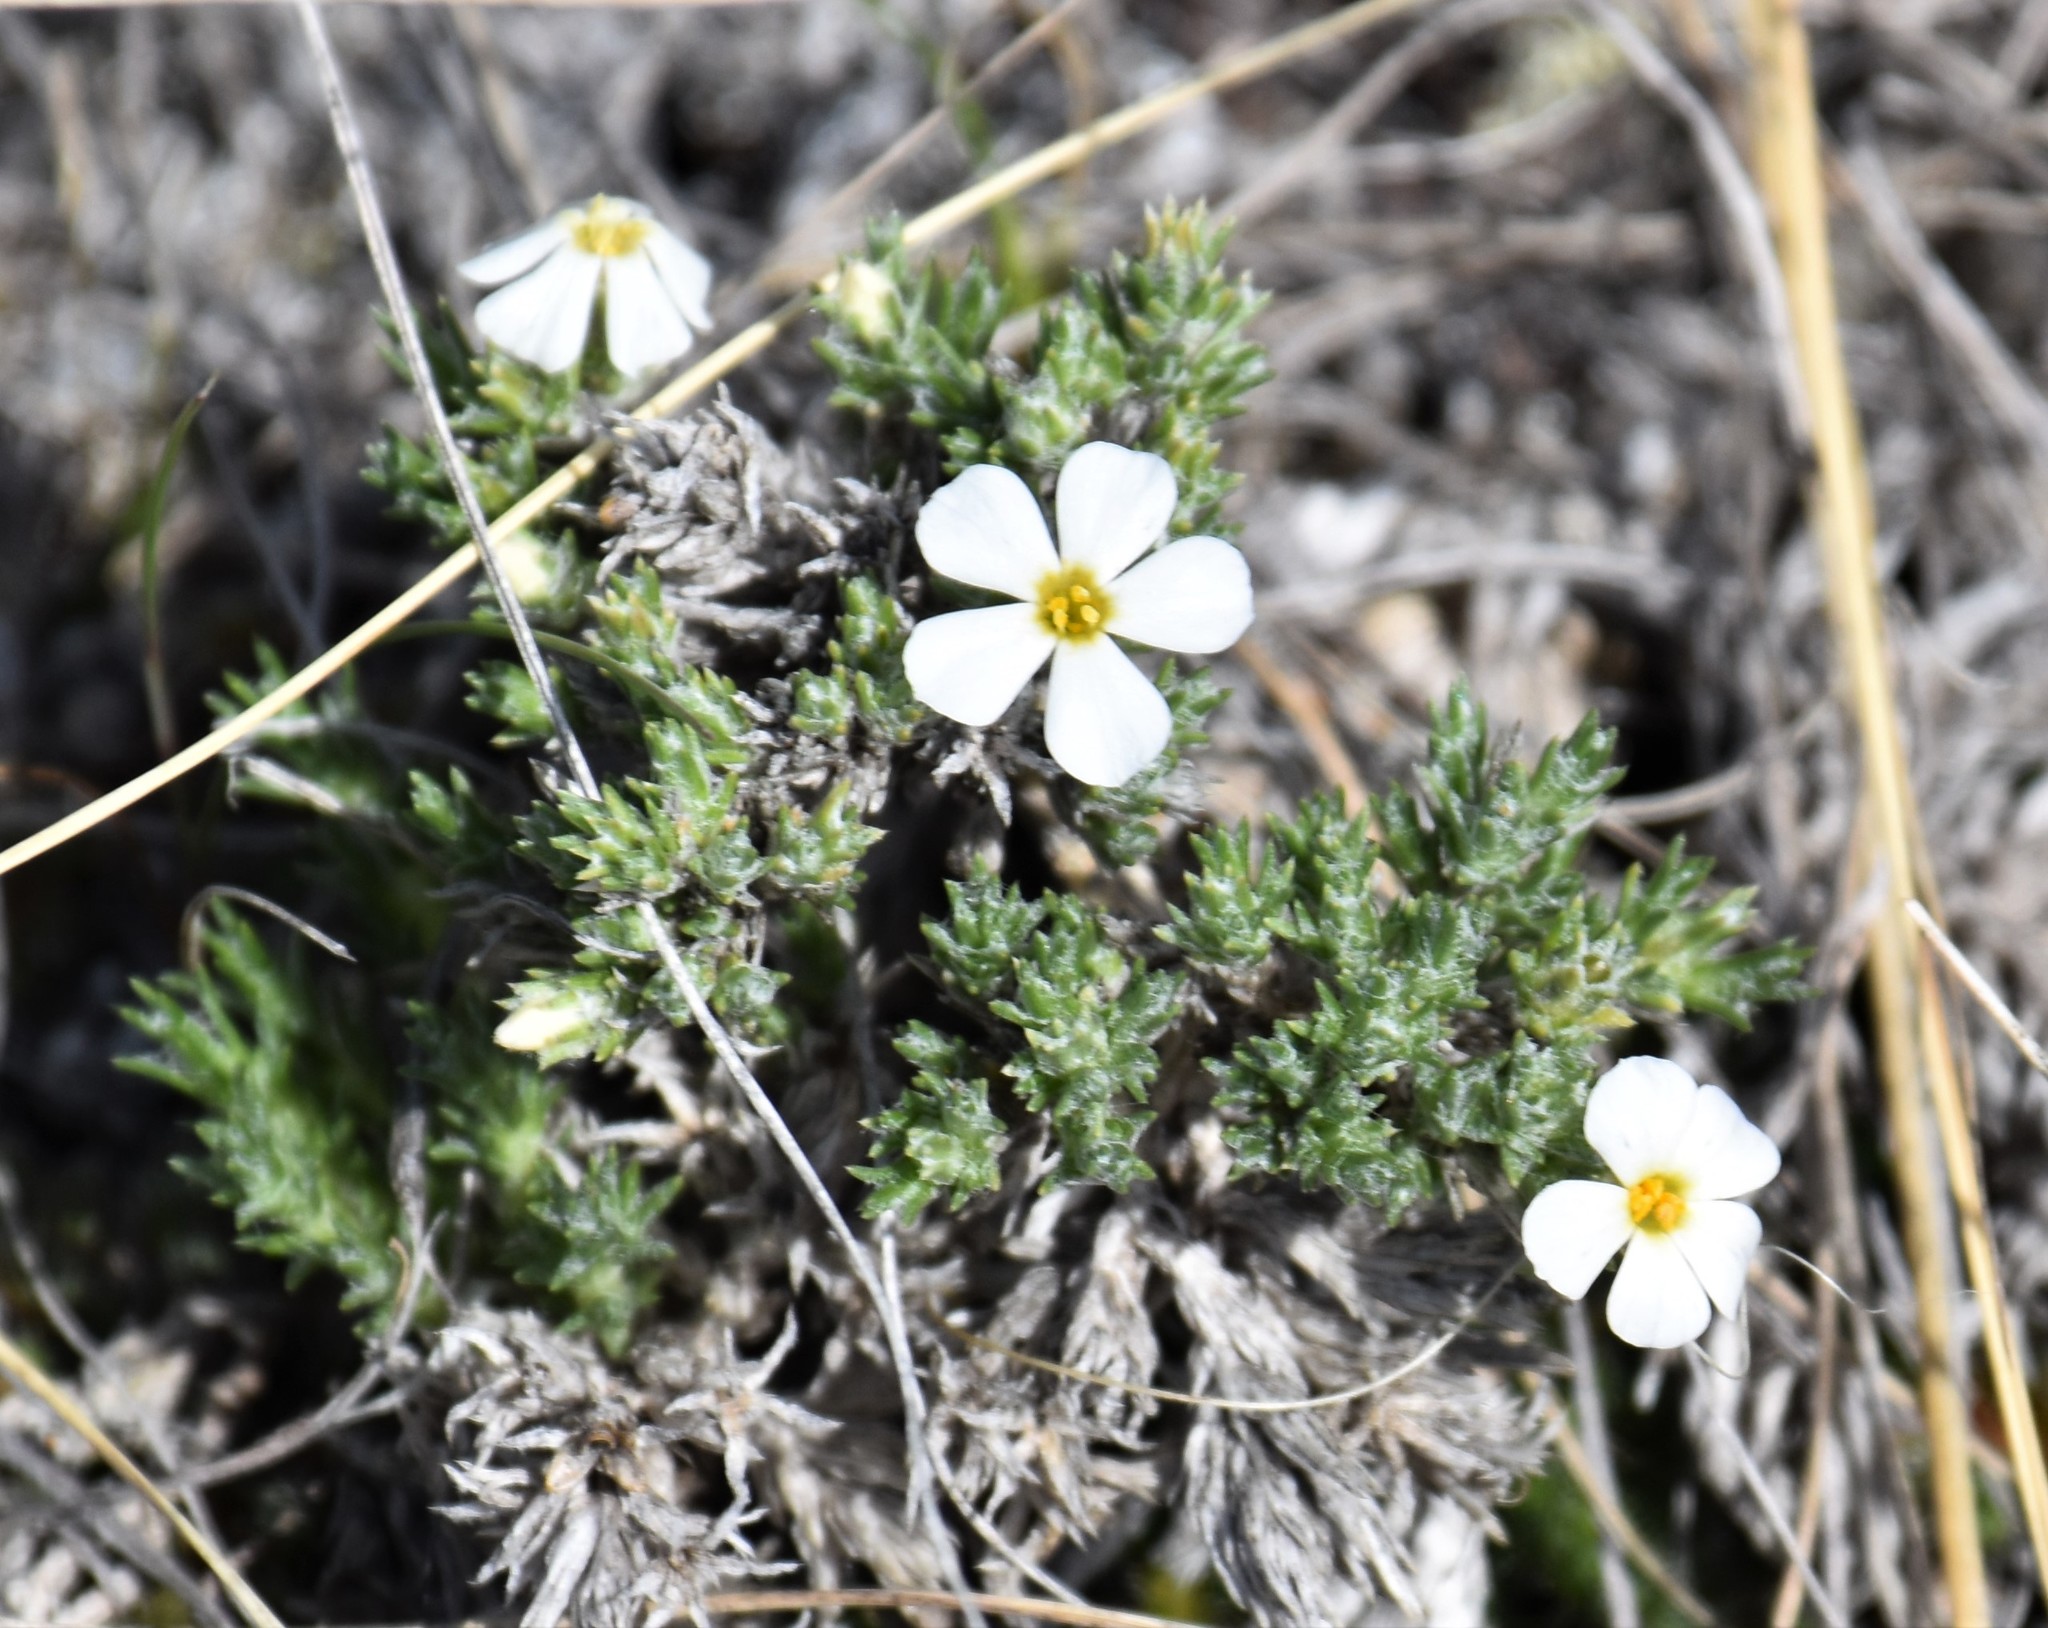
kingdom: Plantae
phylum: Tracheophyta
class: Magnoliopsida
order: Ericales
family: Polemoniaceae
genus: Phlox
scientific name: Phlox hoodii
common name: Moss phlox
